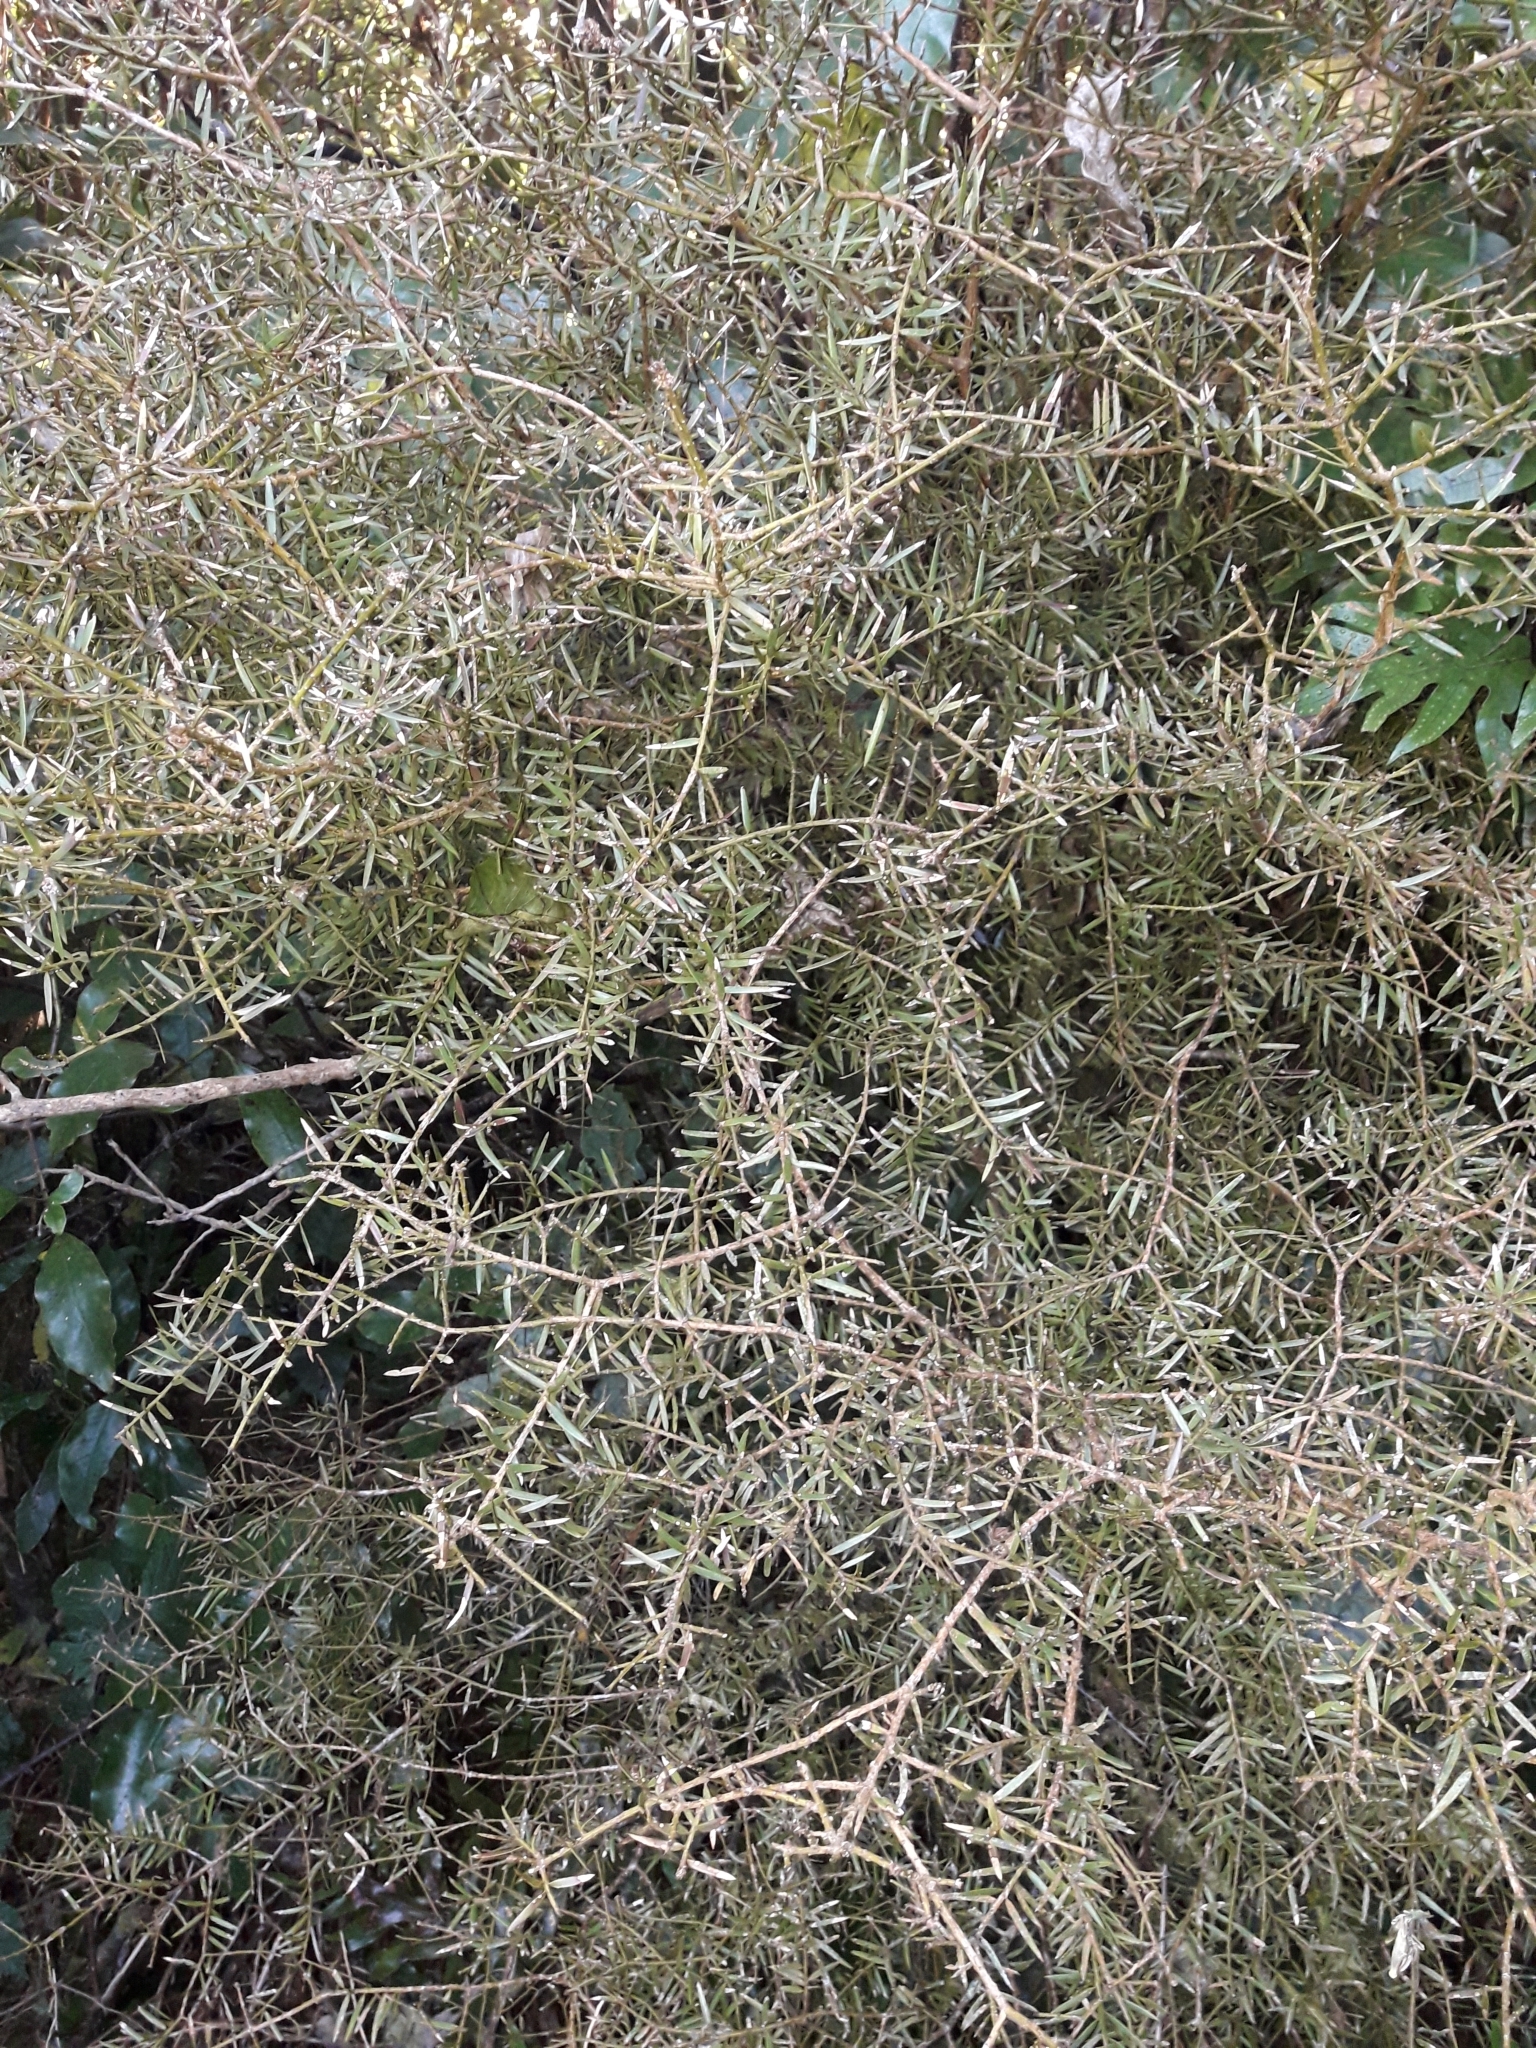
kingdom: Plantae
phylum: Tracheophyta
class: Pinopsida
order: Pinales
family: Podocarpaceae
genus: Podocarpus
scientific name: Podocarpus totara
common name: Totara
